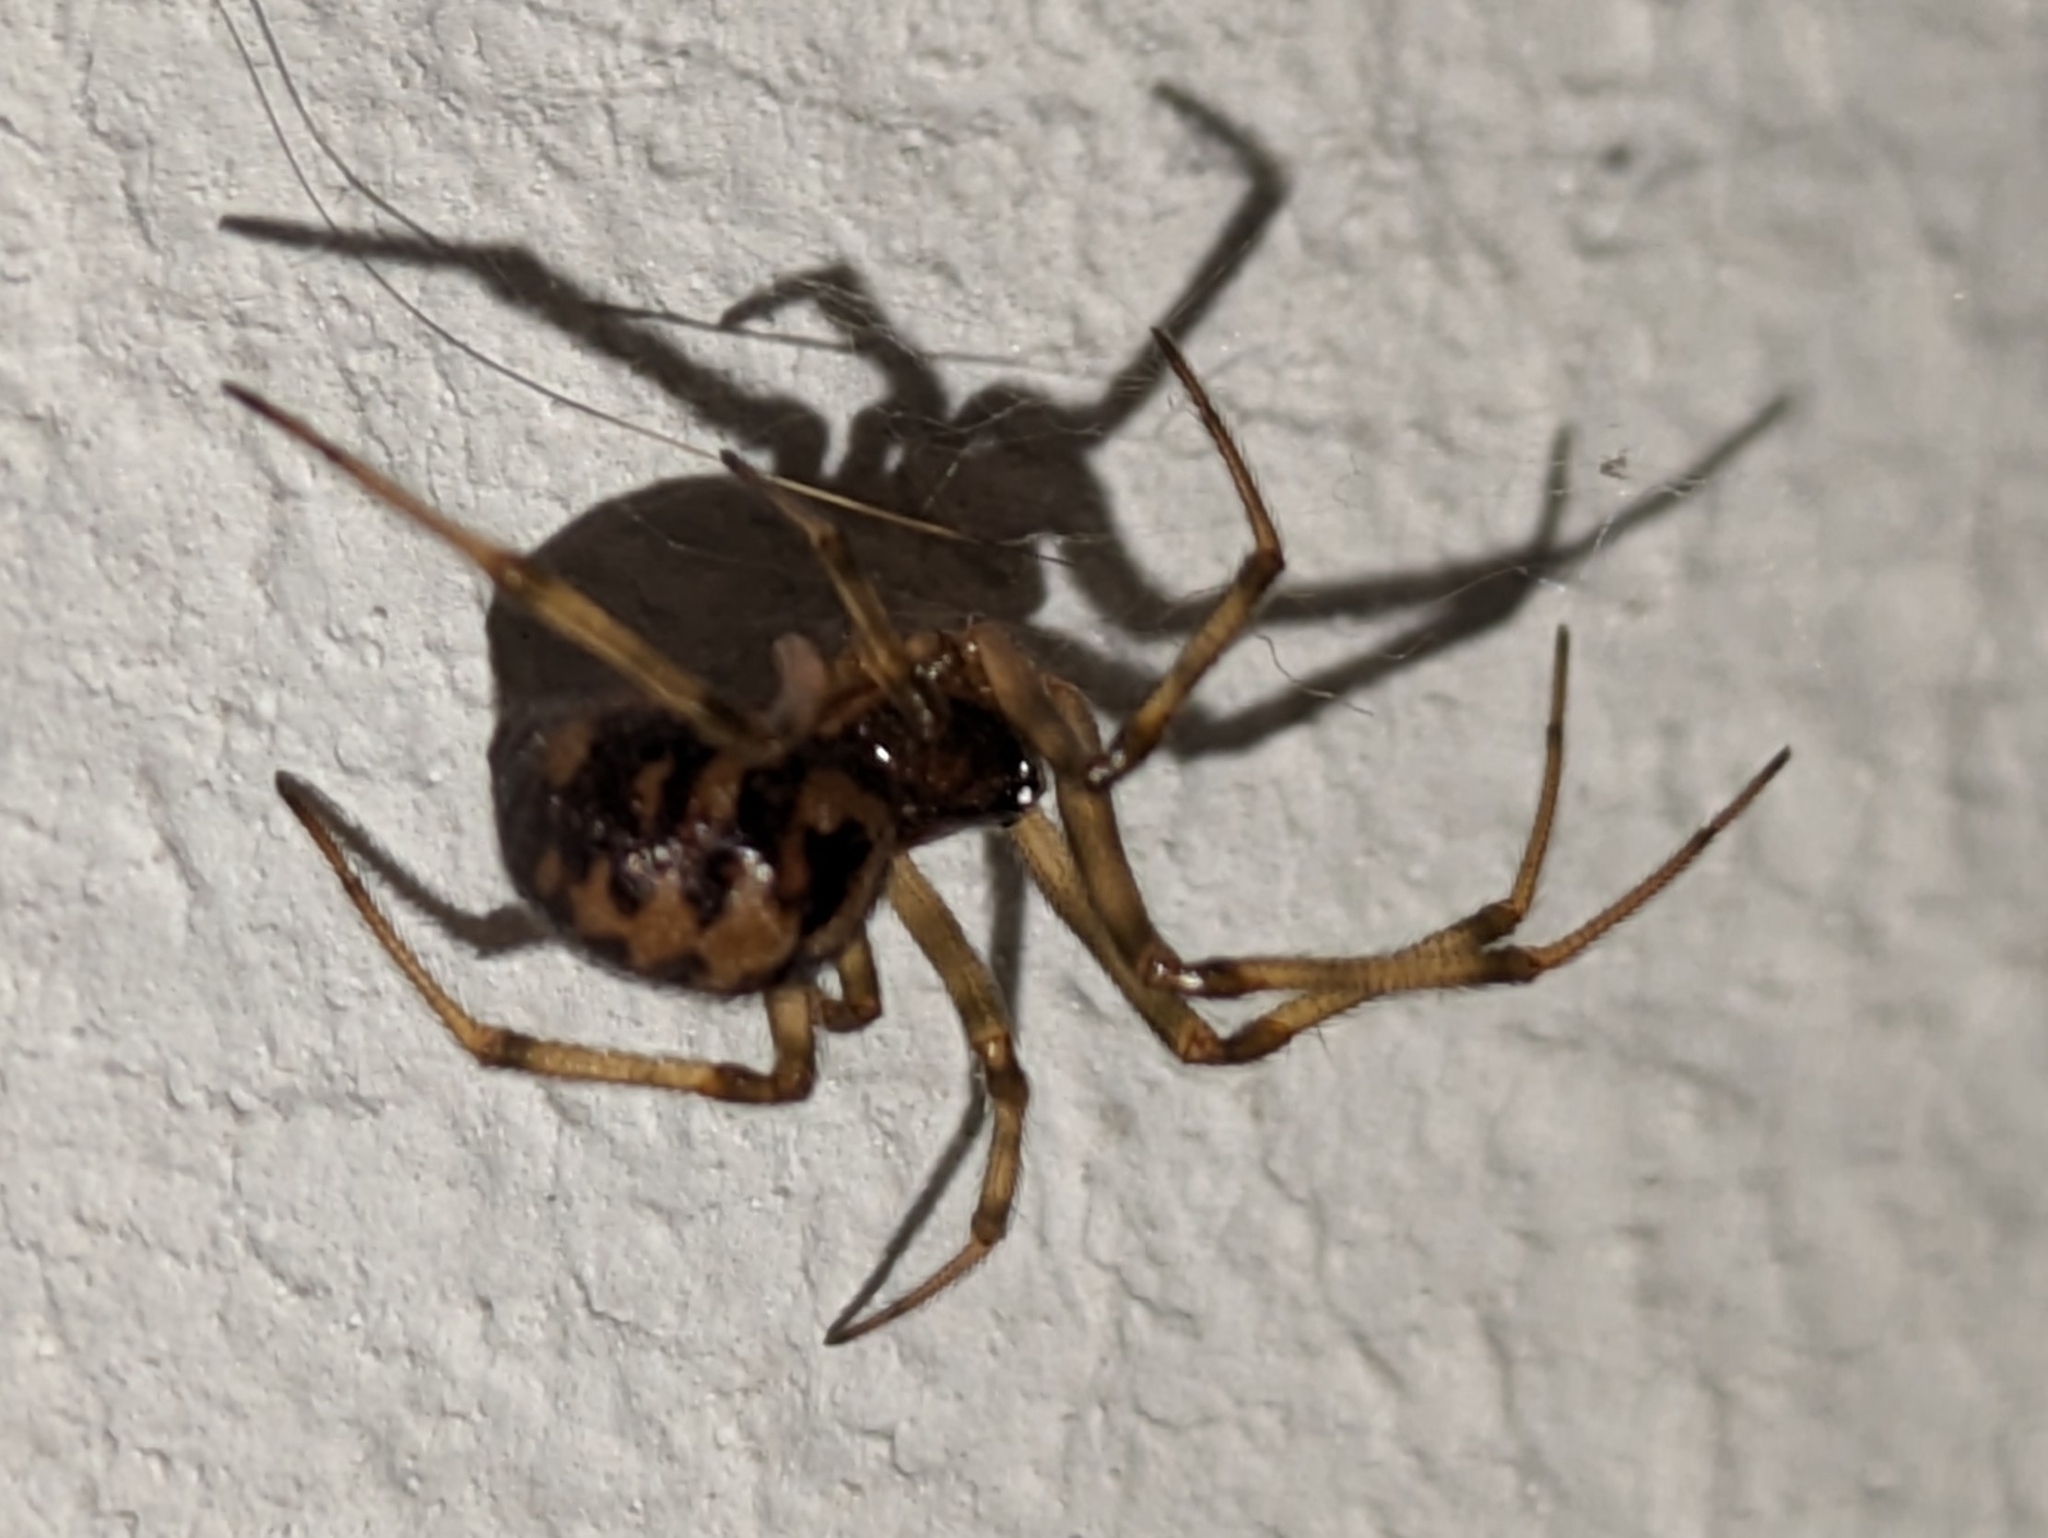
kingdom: Animalia
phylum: Arthropoda
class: Arachnida
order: Araneae
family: Theridiidae
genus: Steatoda
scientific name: Steatoda triangulosa
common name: Triangulate bud spider
